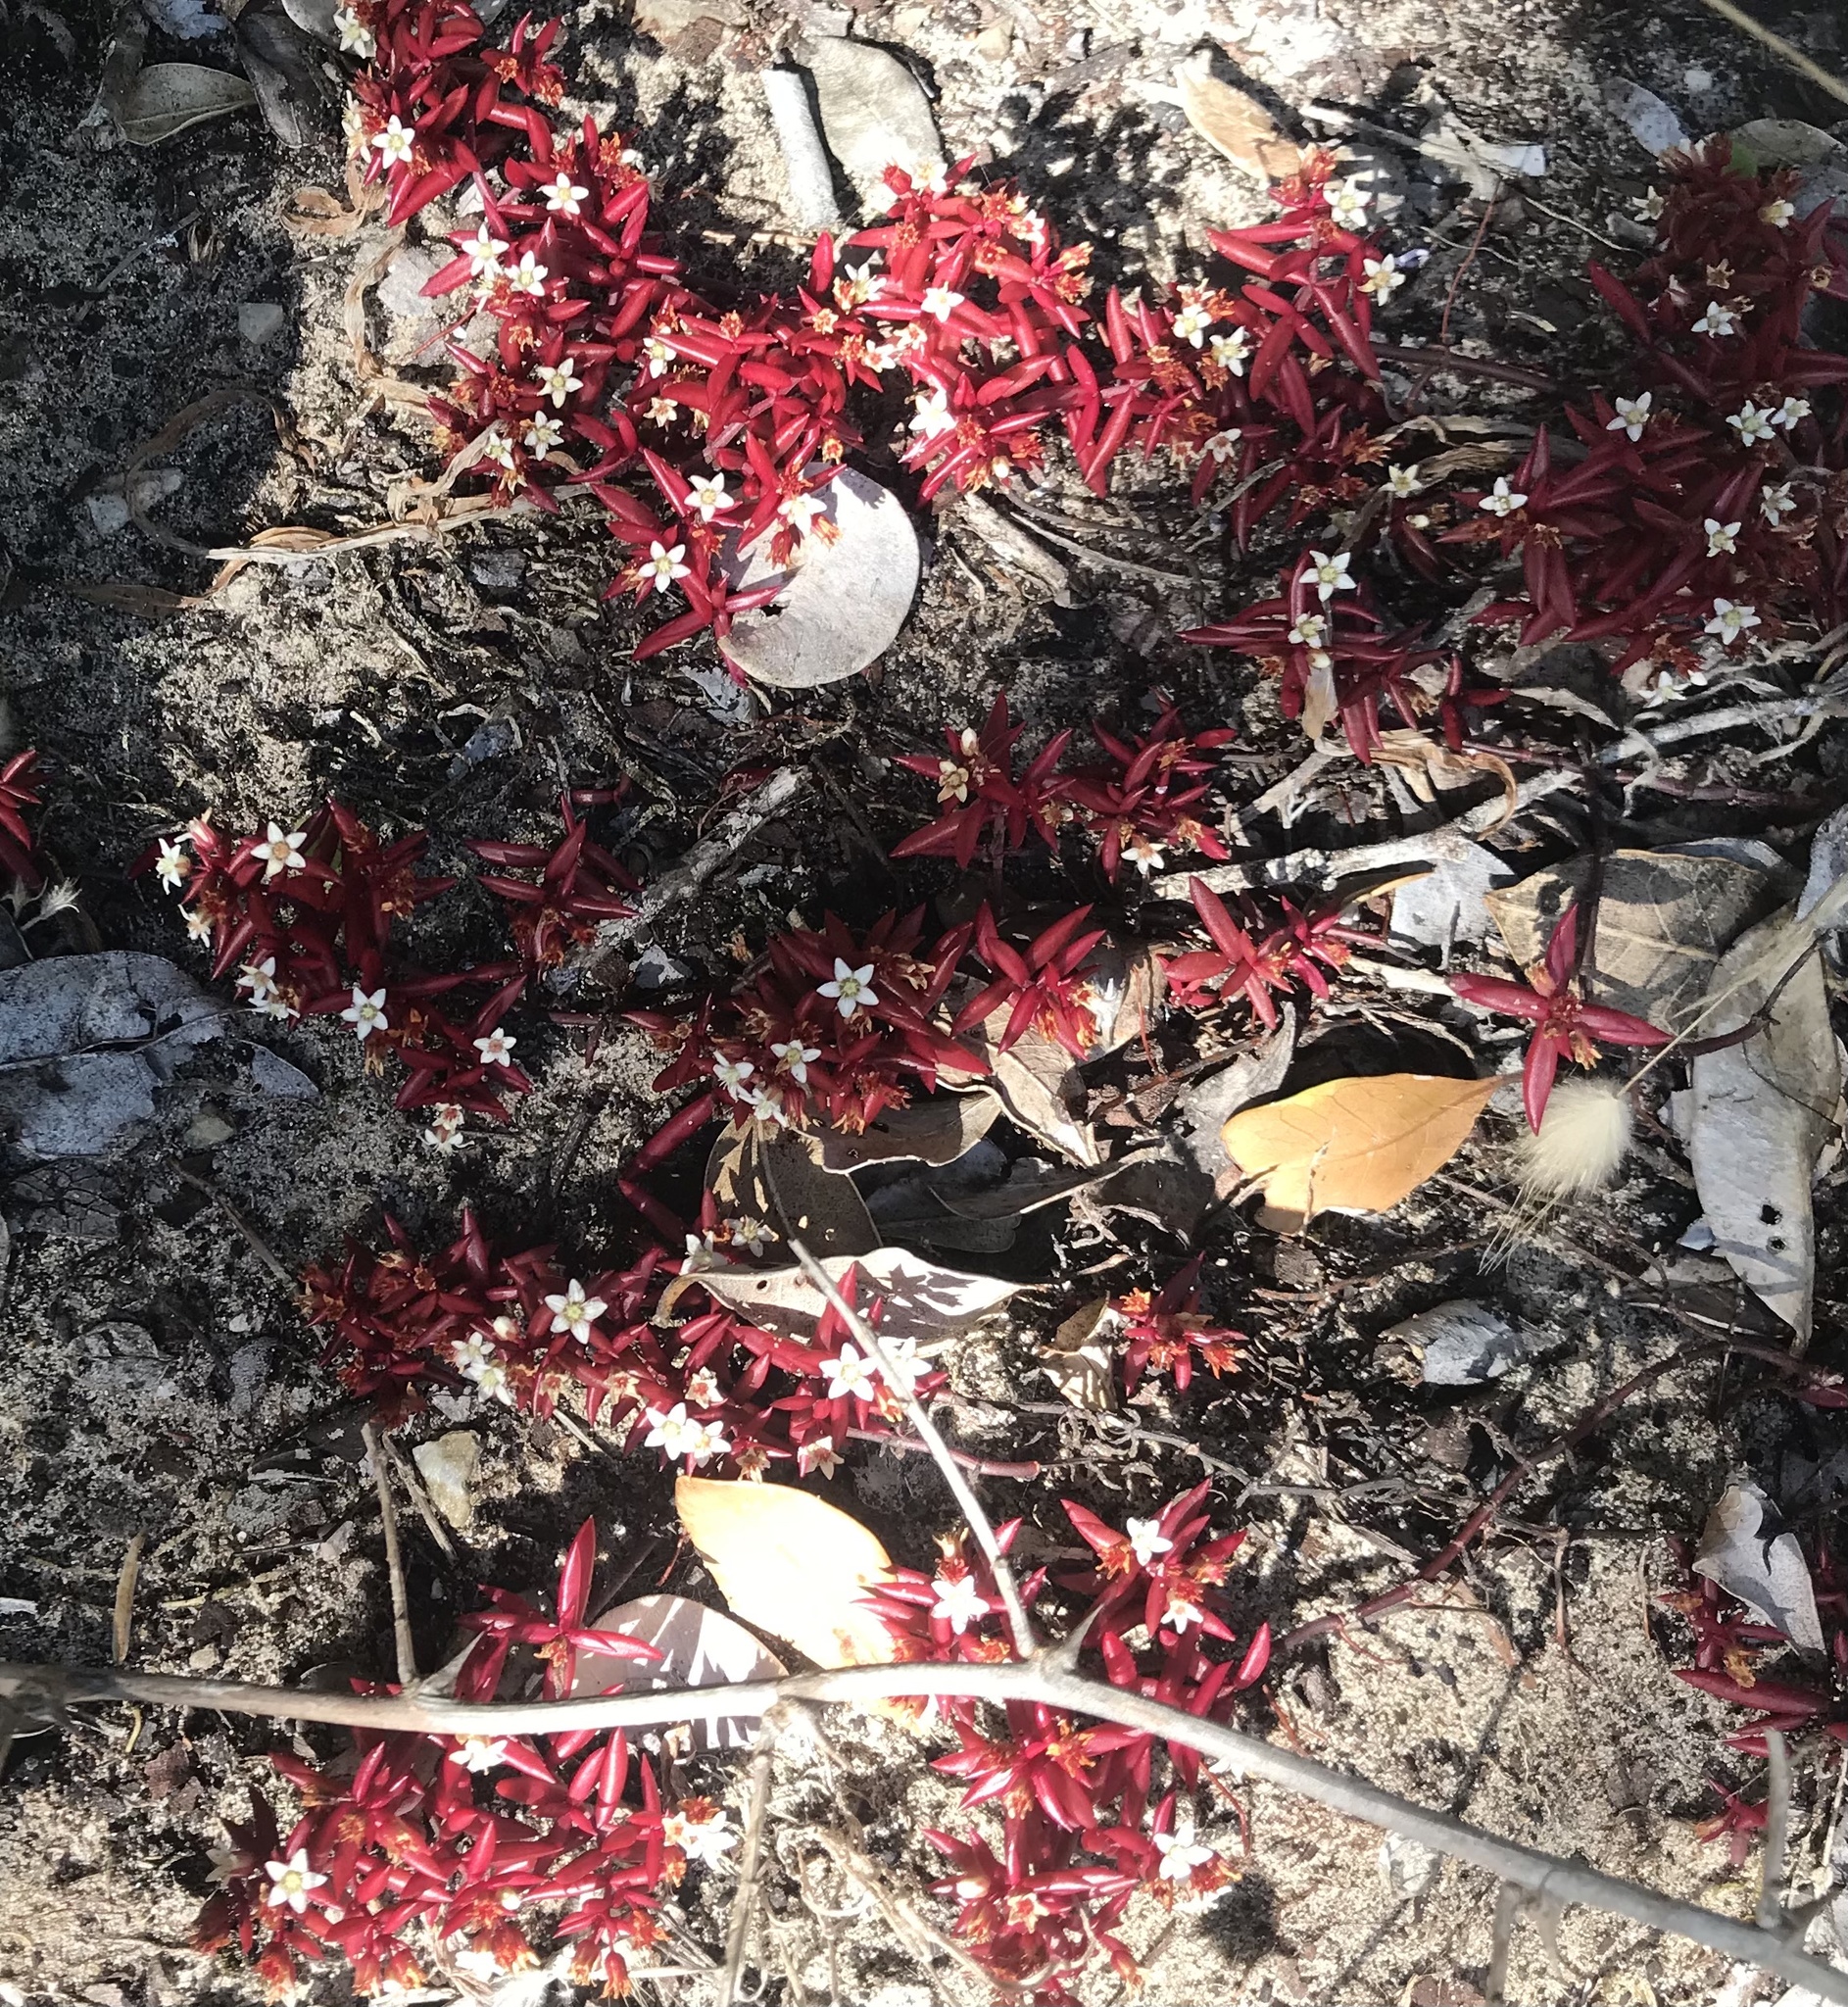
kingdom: Plantae
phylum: Tracheophyta
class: Magnoliopsida
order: Saxifragales
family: Crassulaceae
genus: Crassula
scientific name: Crassula expansa
